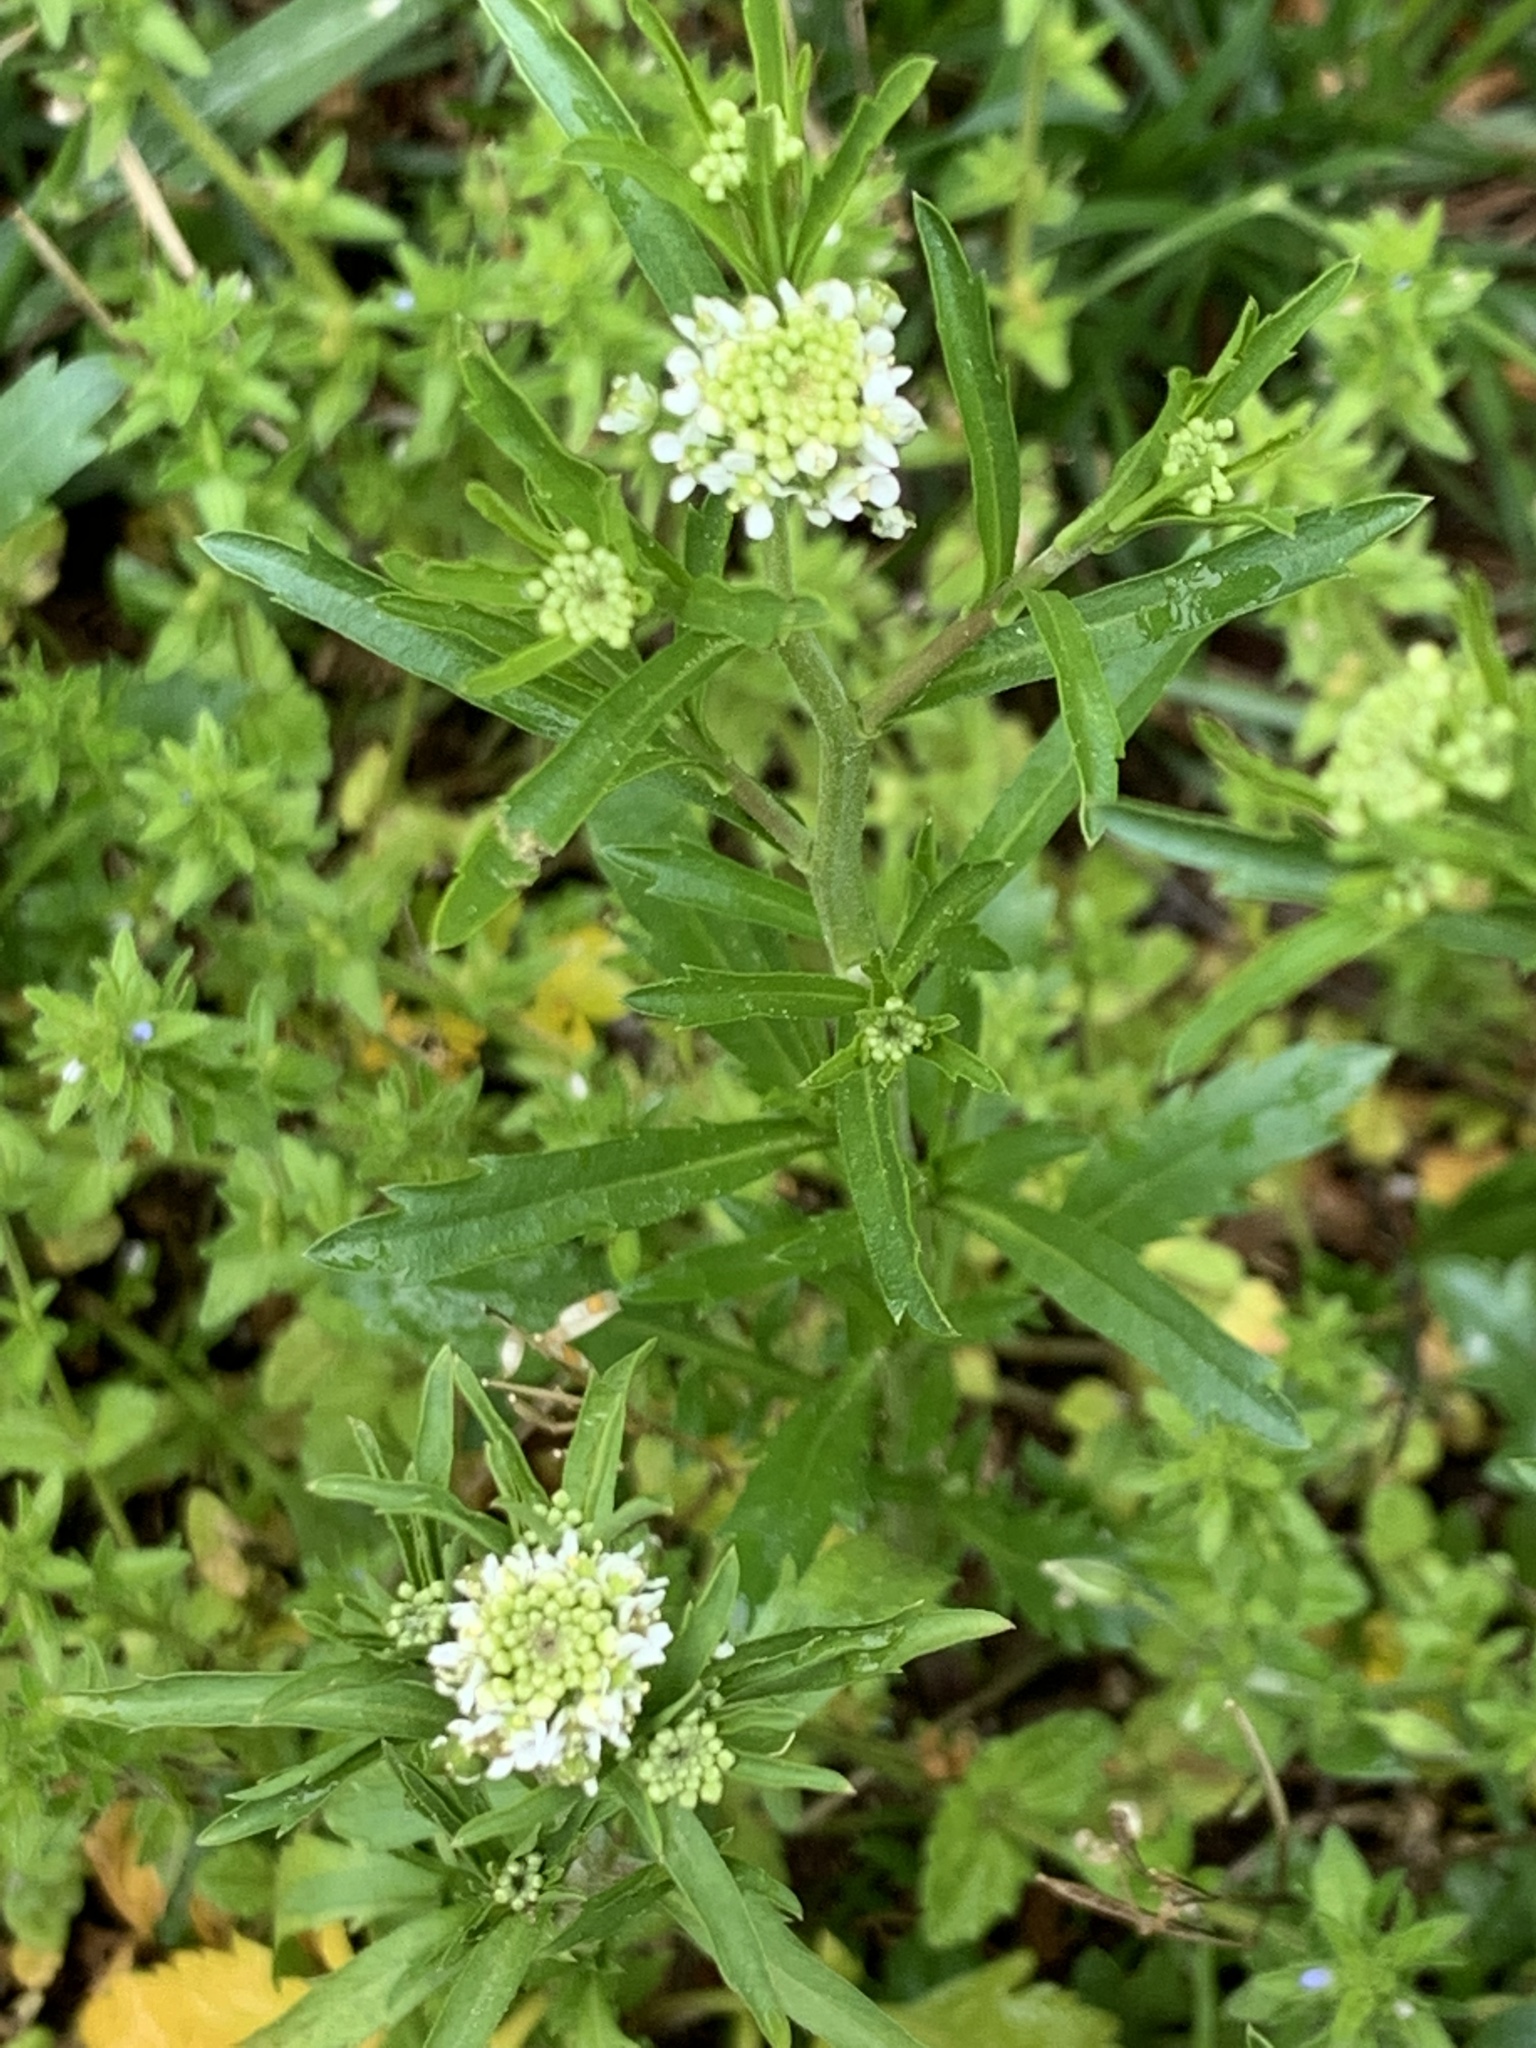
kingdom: Plantae
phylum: Tracheophyta
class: Magnoliopsida
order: Brassicales
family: Brassicaceae
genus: Lepidium
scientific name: Lepidium virginicum
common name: Least pepperwort
